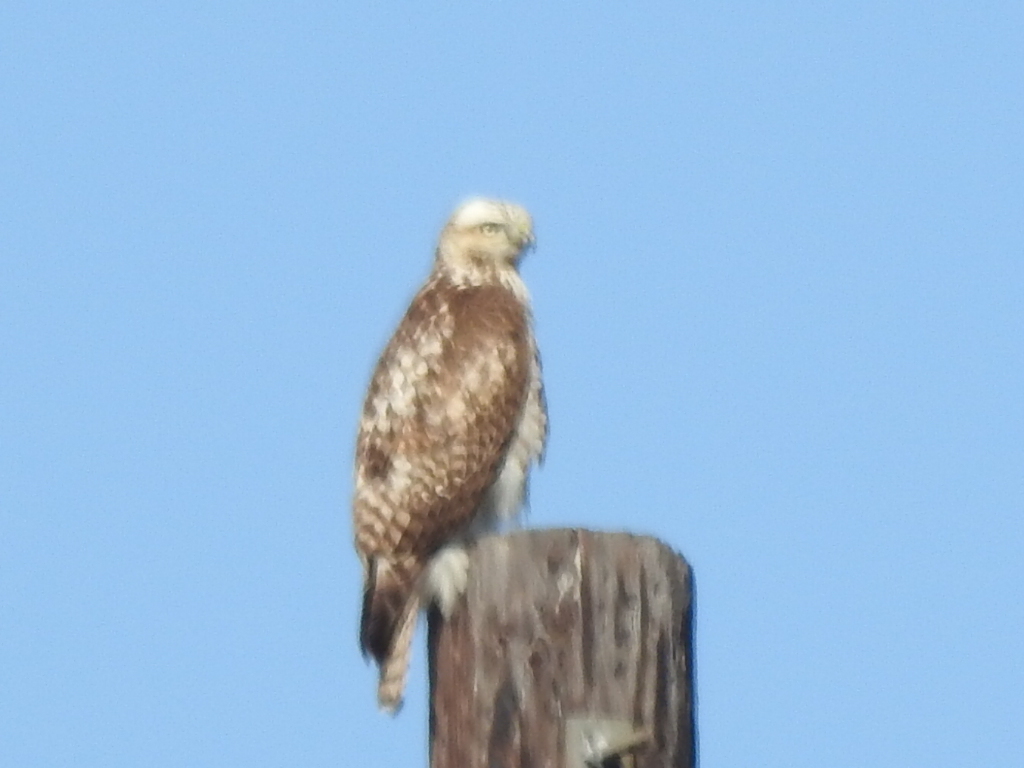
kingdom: Animalia
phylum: Chordata
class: Aves
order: Accipitriformes
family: Accipitridae
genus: Buteo
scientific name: Buteo jamaicensis
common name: Red-tailed hawk
